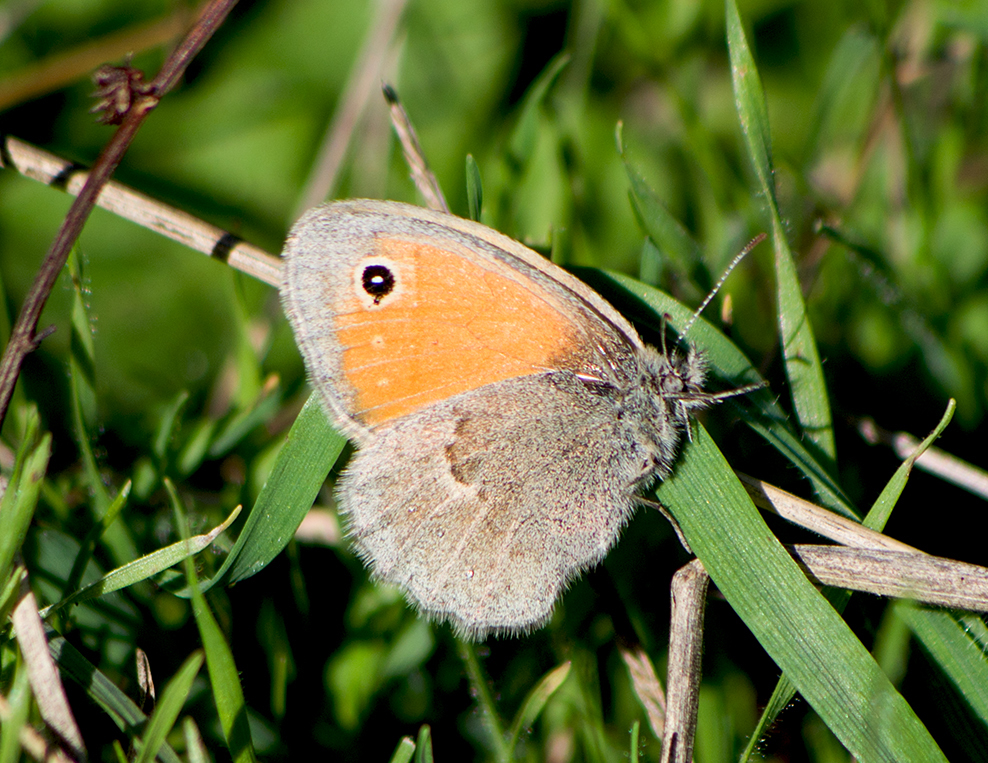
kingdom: Animalia
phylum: Arthropoda
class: Insecta
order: Lepidoptera
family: Nymphalidae
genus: Coenonympha
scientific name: Coenonympha pamphilus
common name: Small heath
